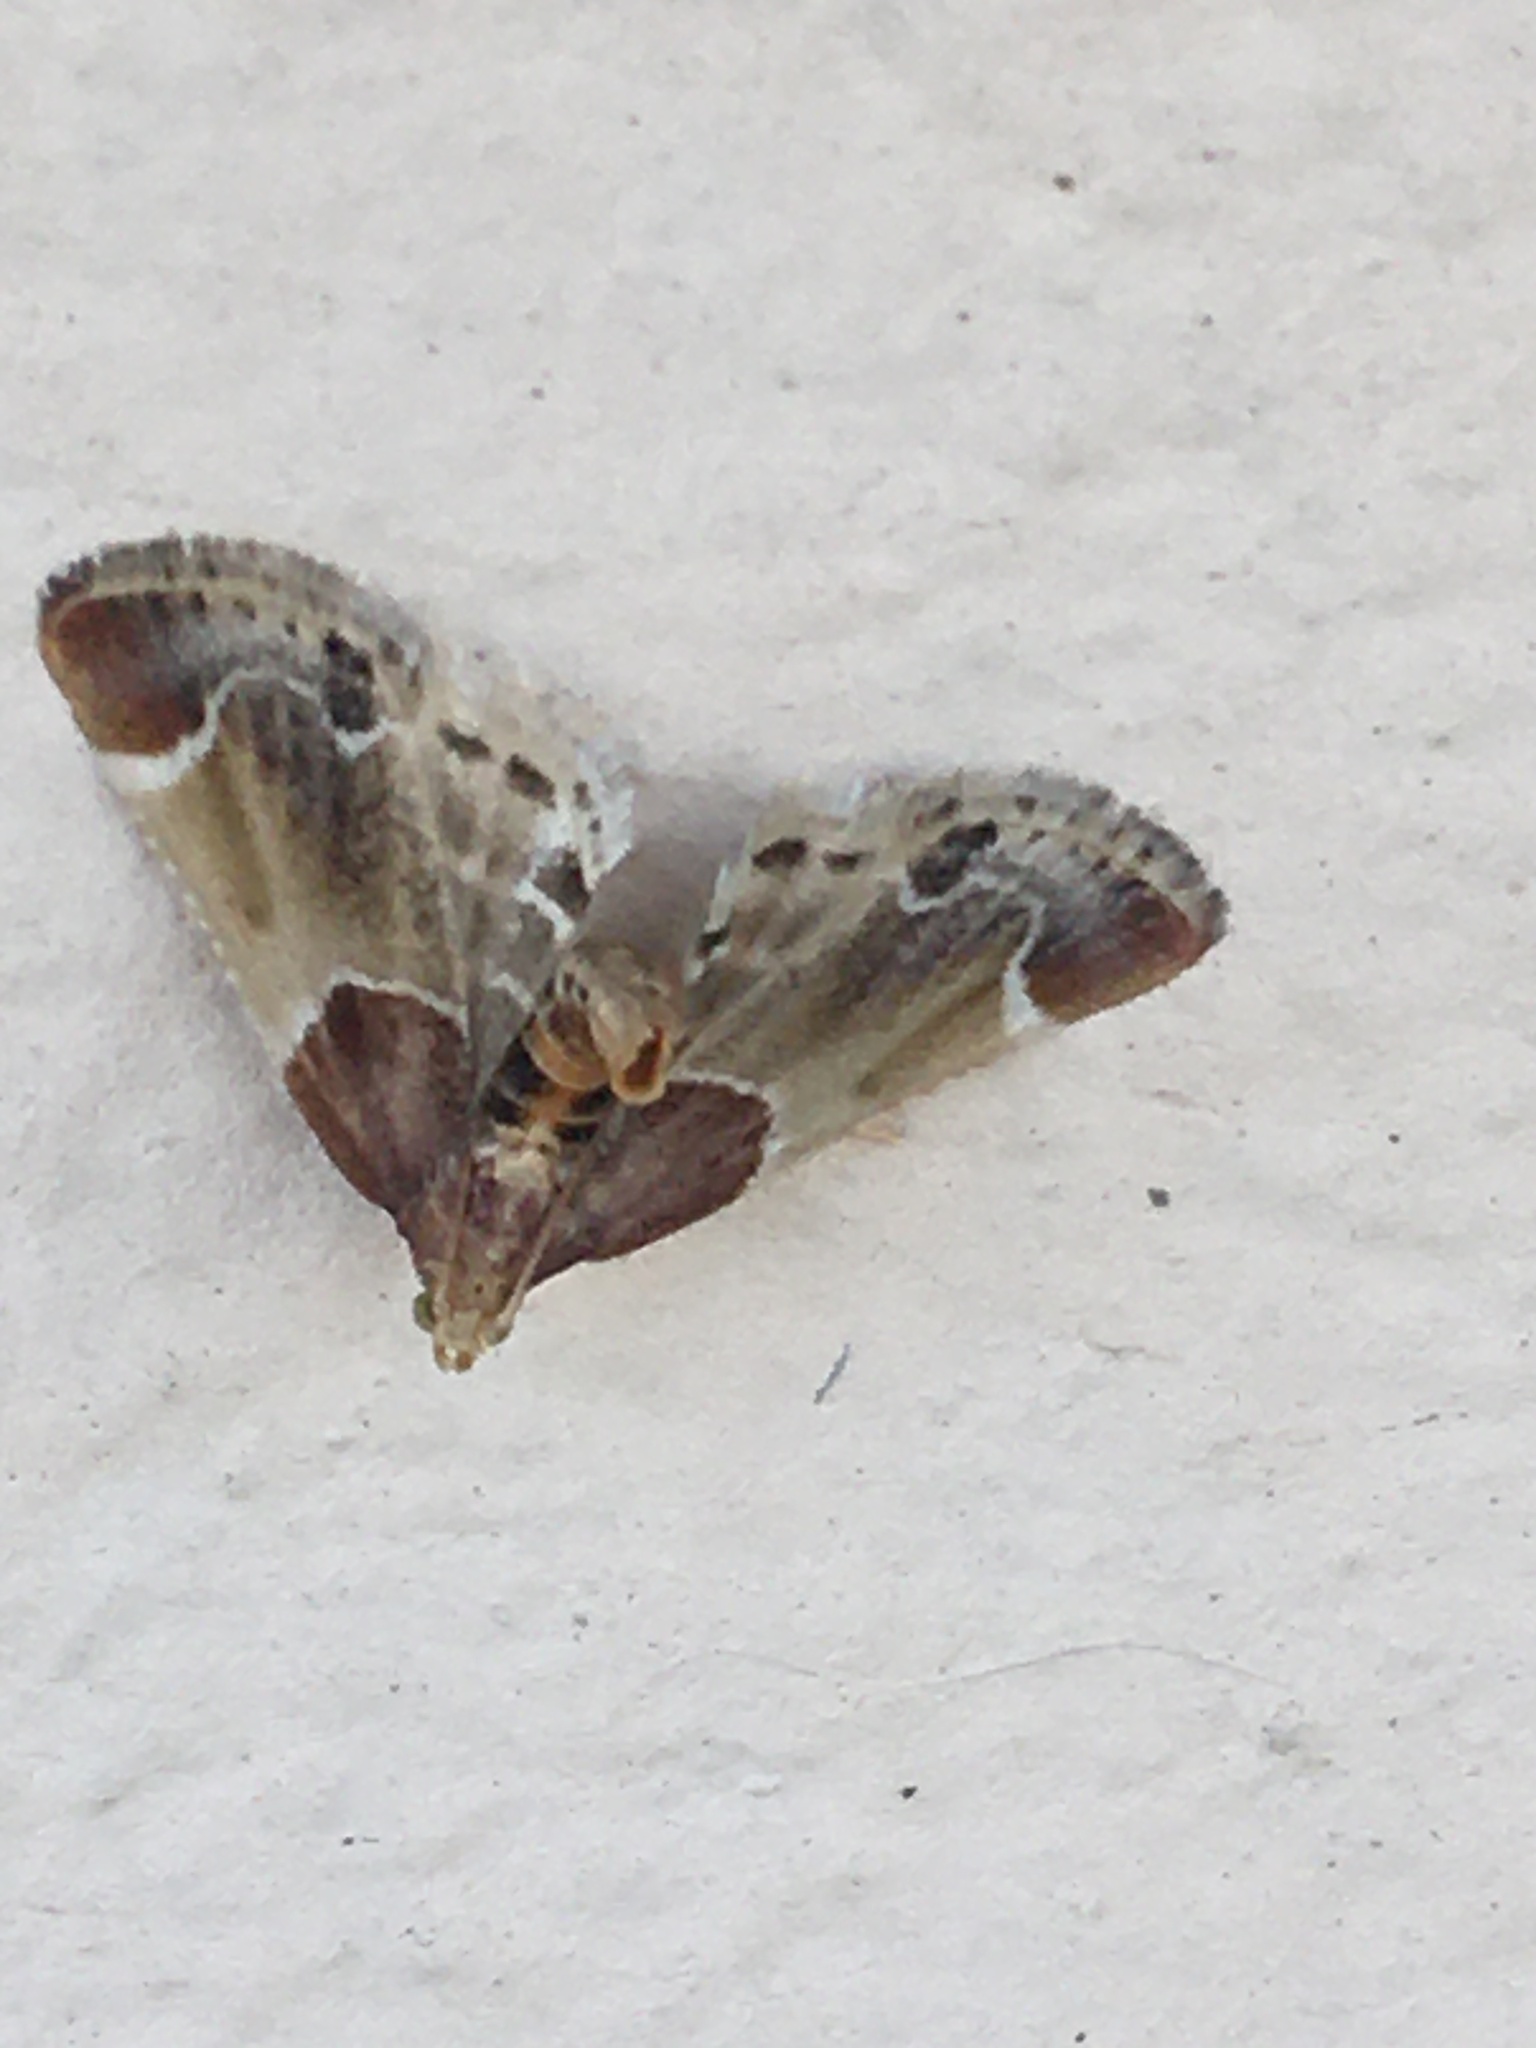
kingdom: Animalia
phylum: Arthropoda
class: Insecta
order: Lepidoptera
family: Pyralidae
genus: Pyralis
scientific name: Pyralis farinalis
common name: Meal moth
